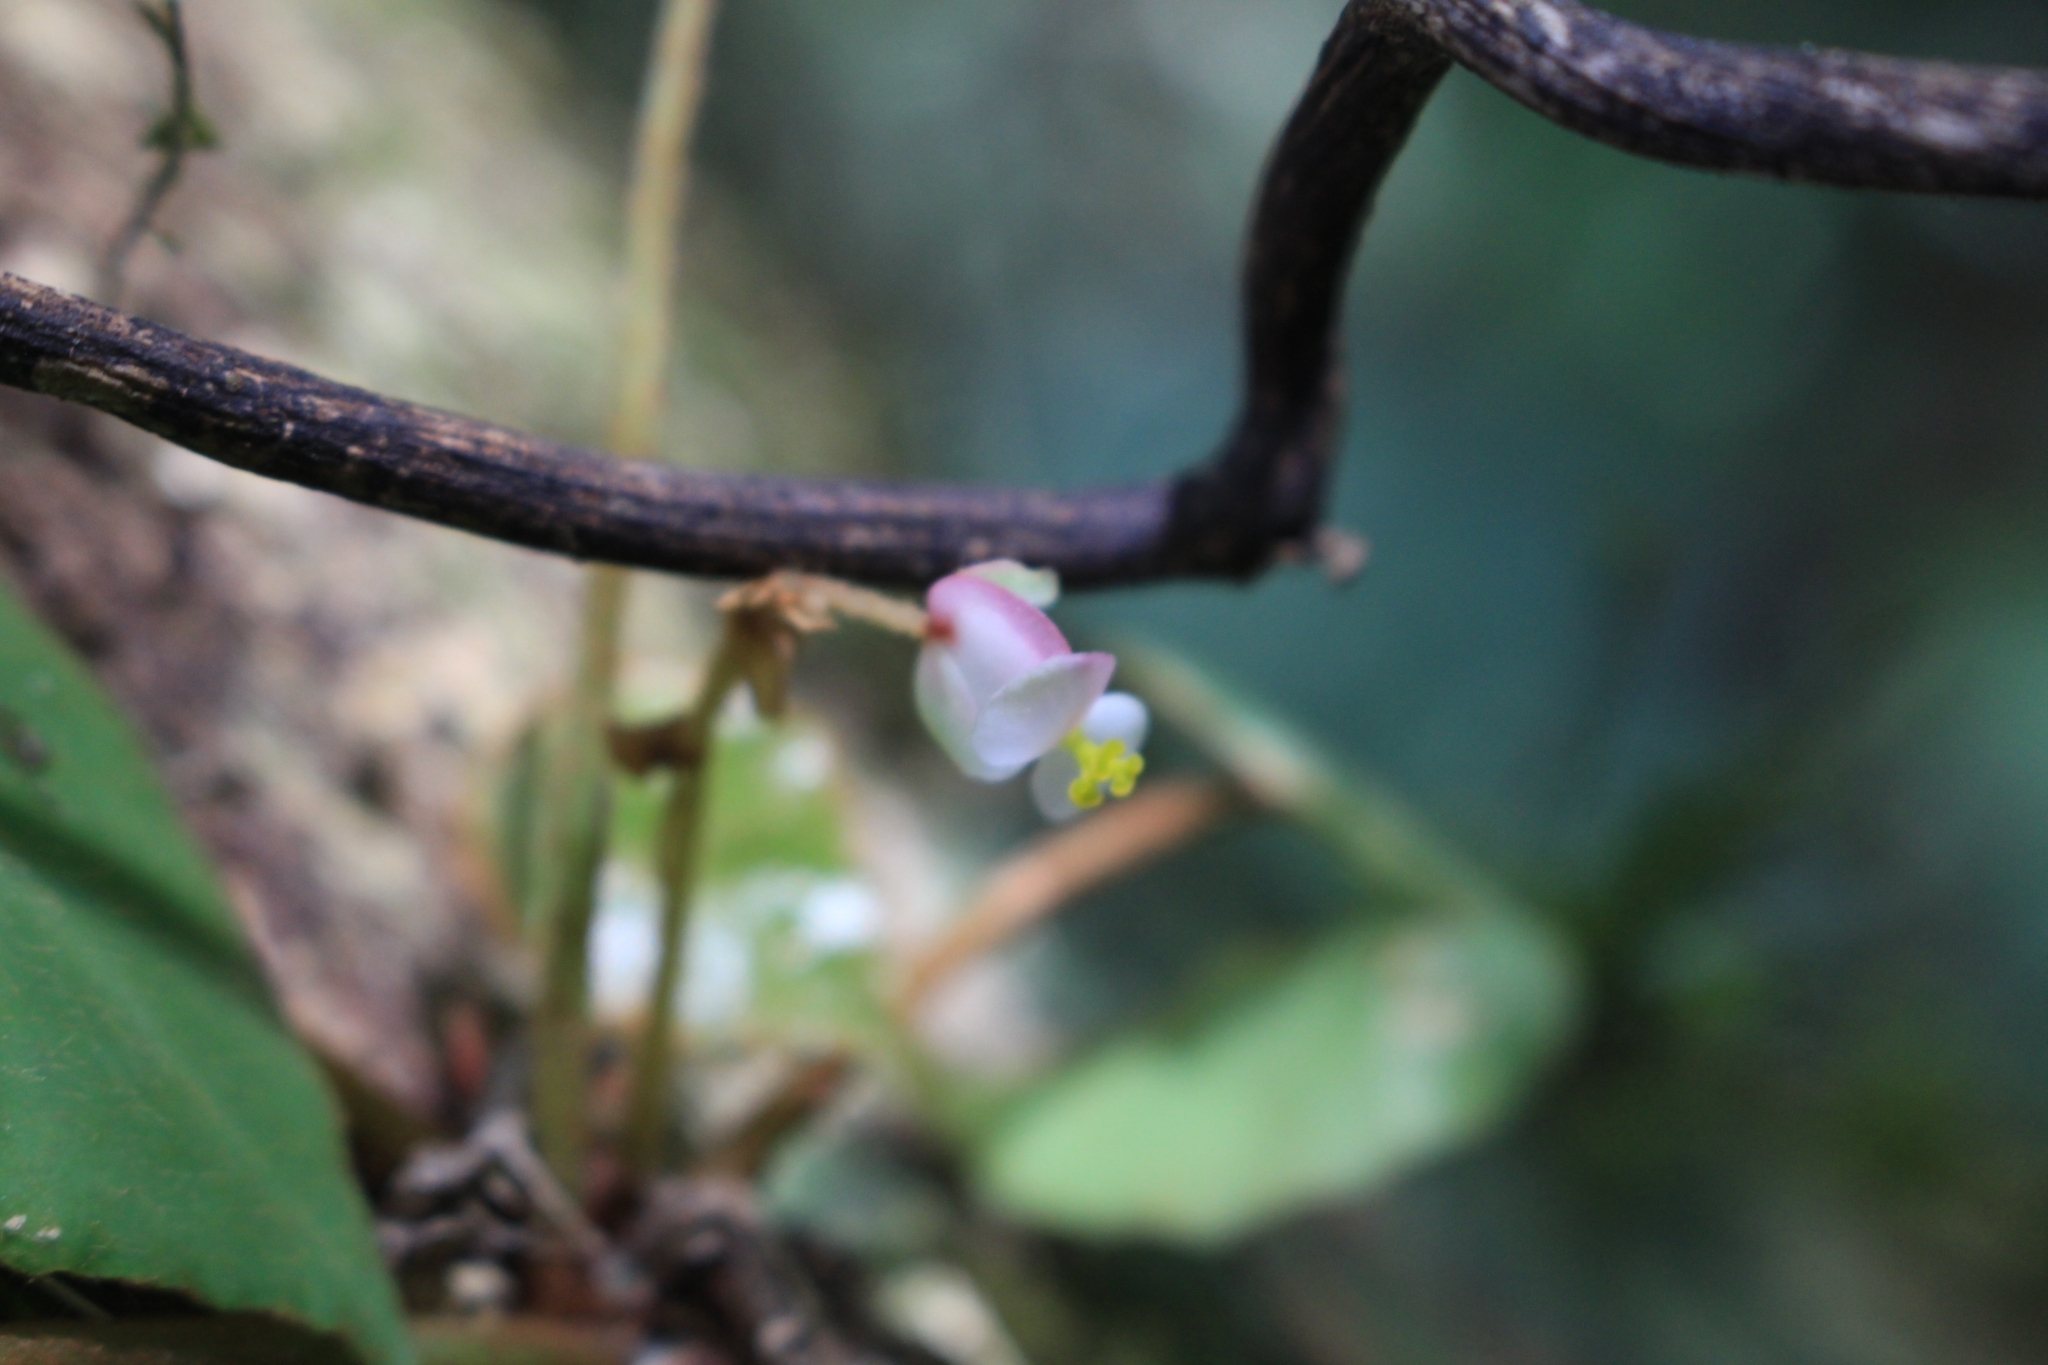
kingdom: Plantae
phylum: Tracheophyta
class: Magnoliopsida
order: Cucurbitales
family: Begoniaceae
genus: Begonia
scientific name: Begonia conchifolia
